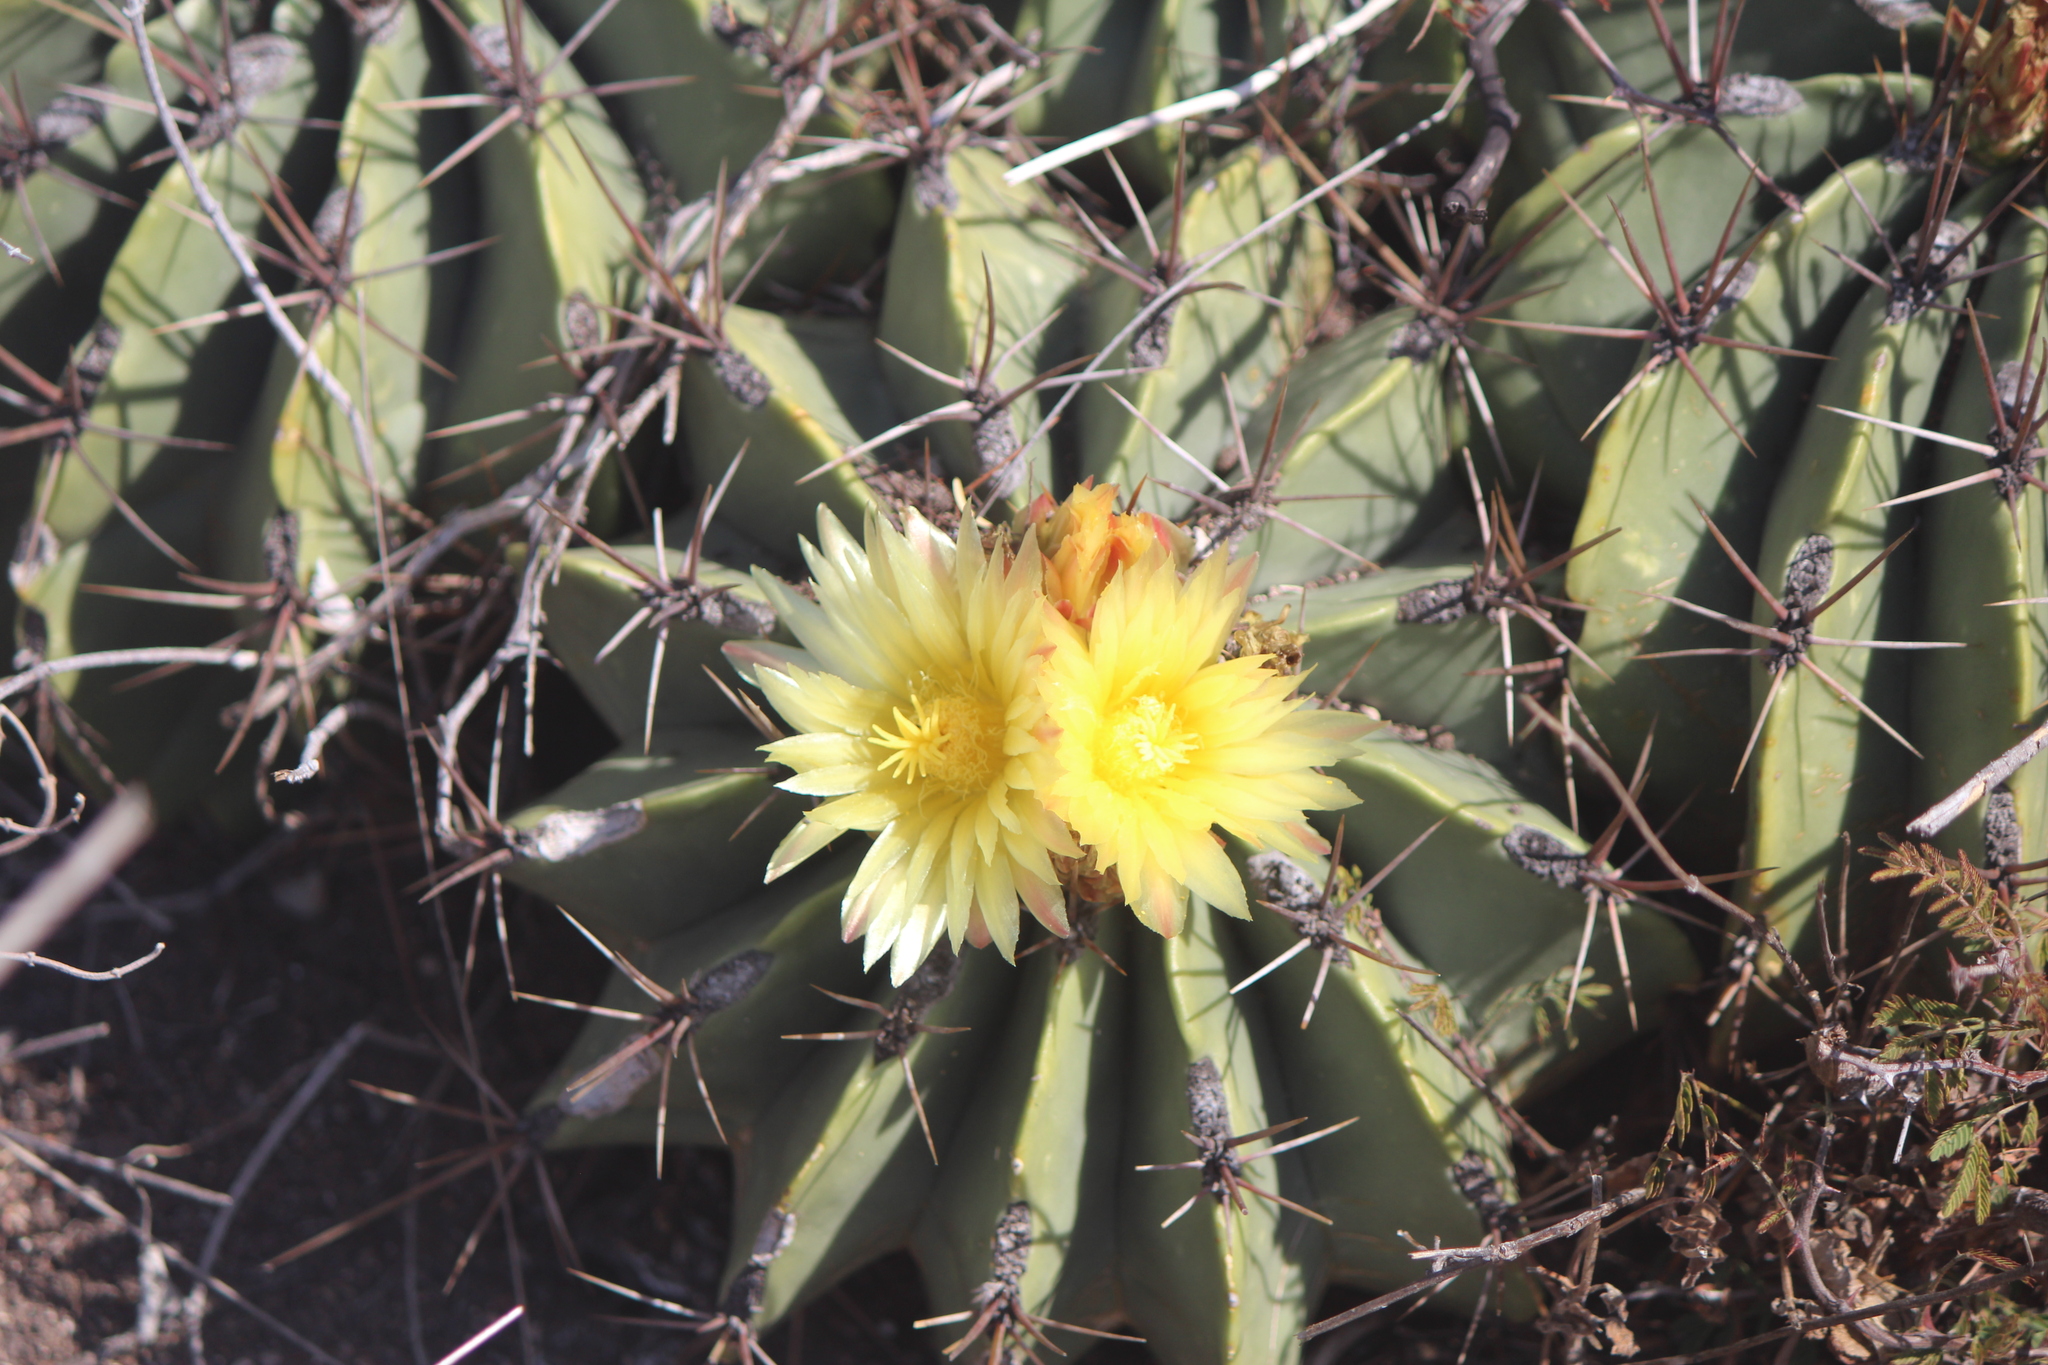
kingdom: Plantae
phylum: Tracheophyta
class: Magnoliopsida
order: Caryophyllales
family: Cactaceae
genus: Parrycactus
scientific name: Parrycactus echidne
